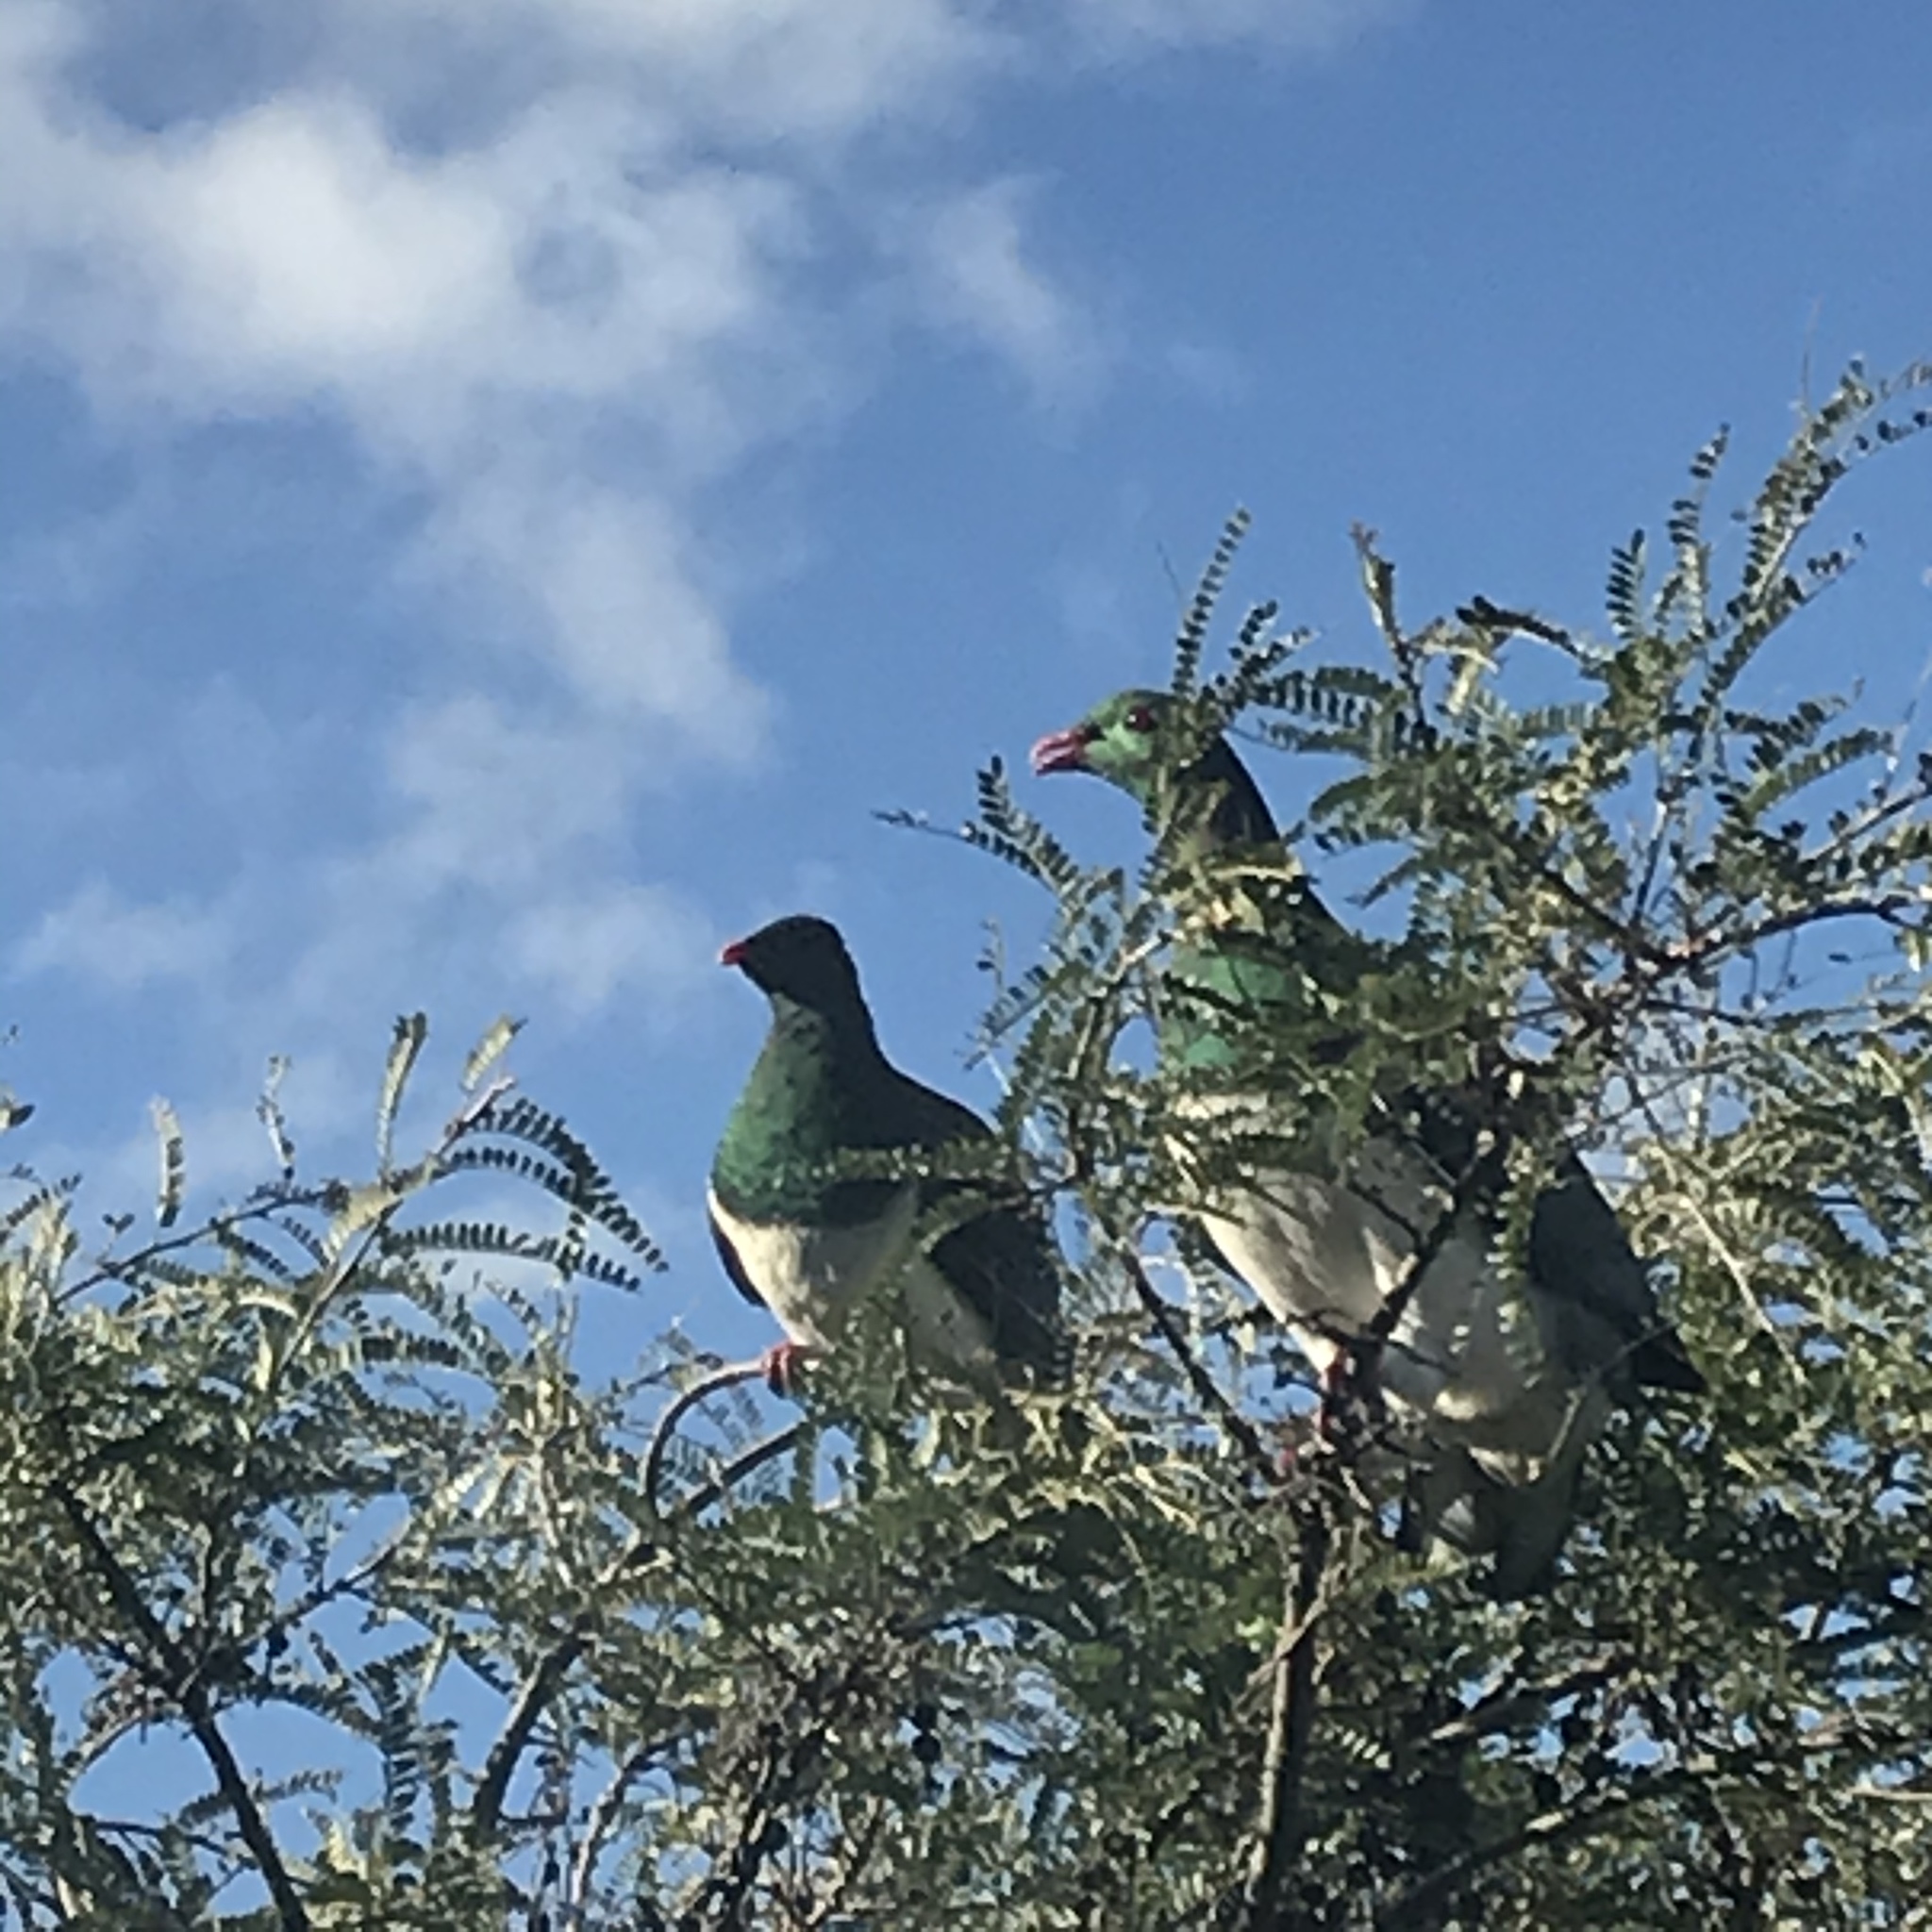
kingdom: Animalia
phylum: Chordata
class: Aves
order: Columbiformes
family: Columbidae
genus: Hemiphaga
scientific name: Hemiphaga novaeseelandiae
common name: New zealand pigeon
